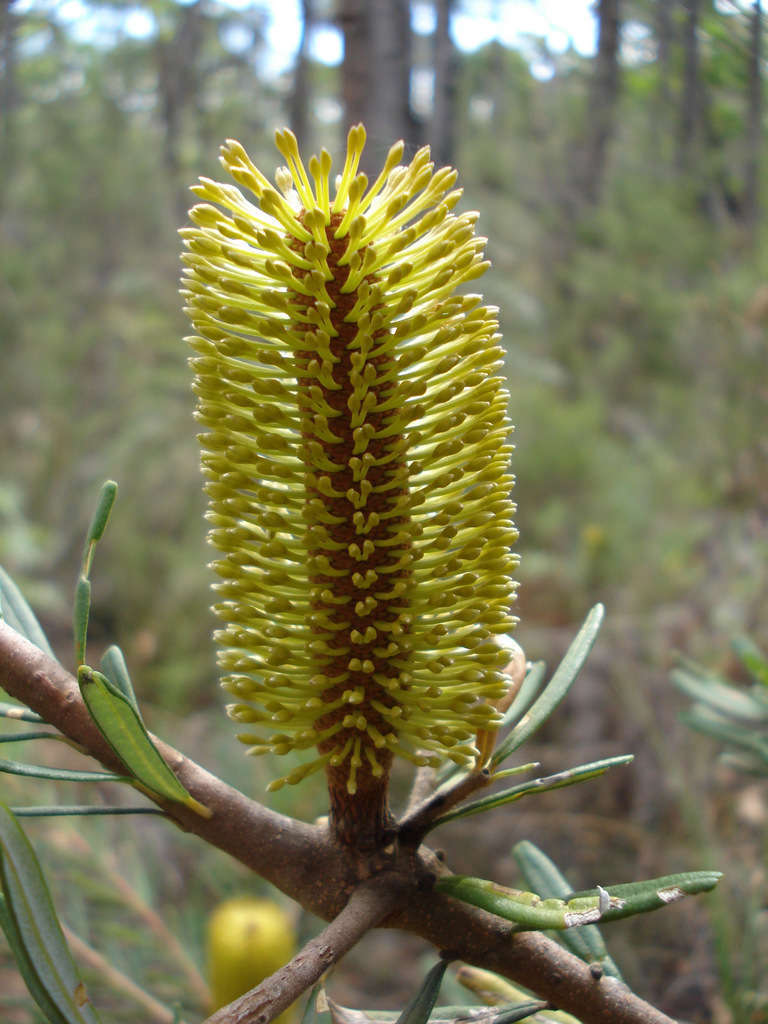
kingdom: Plantae
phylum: Tracheophyta
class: Magnoliopsida
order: Proteales
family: Proteaceae
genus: Banksia
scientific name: Banksia marginata
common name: Silver banksia
